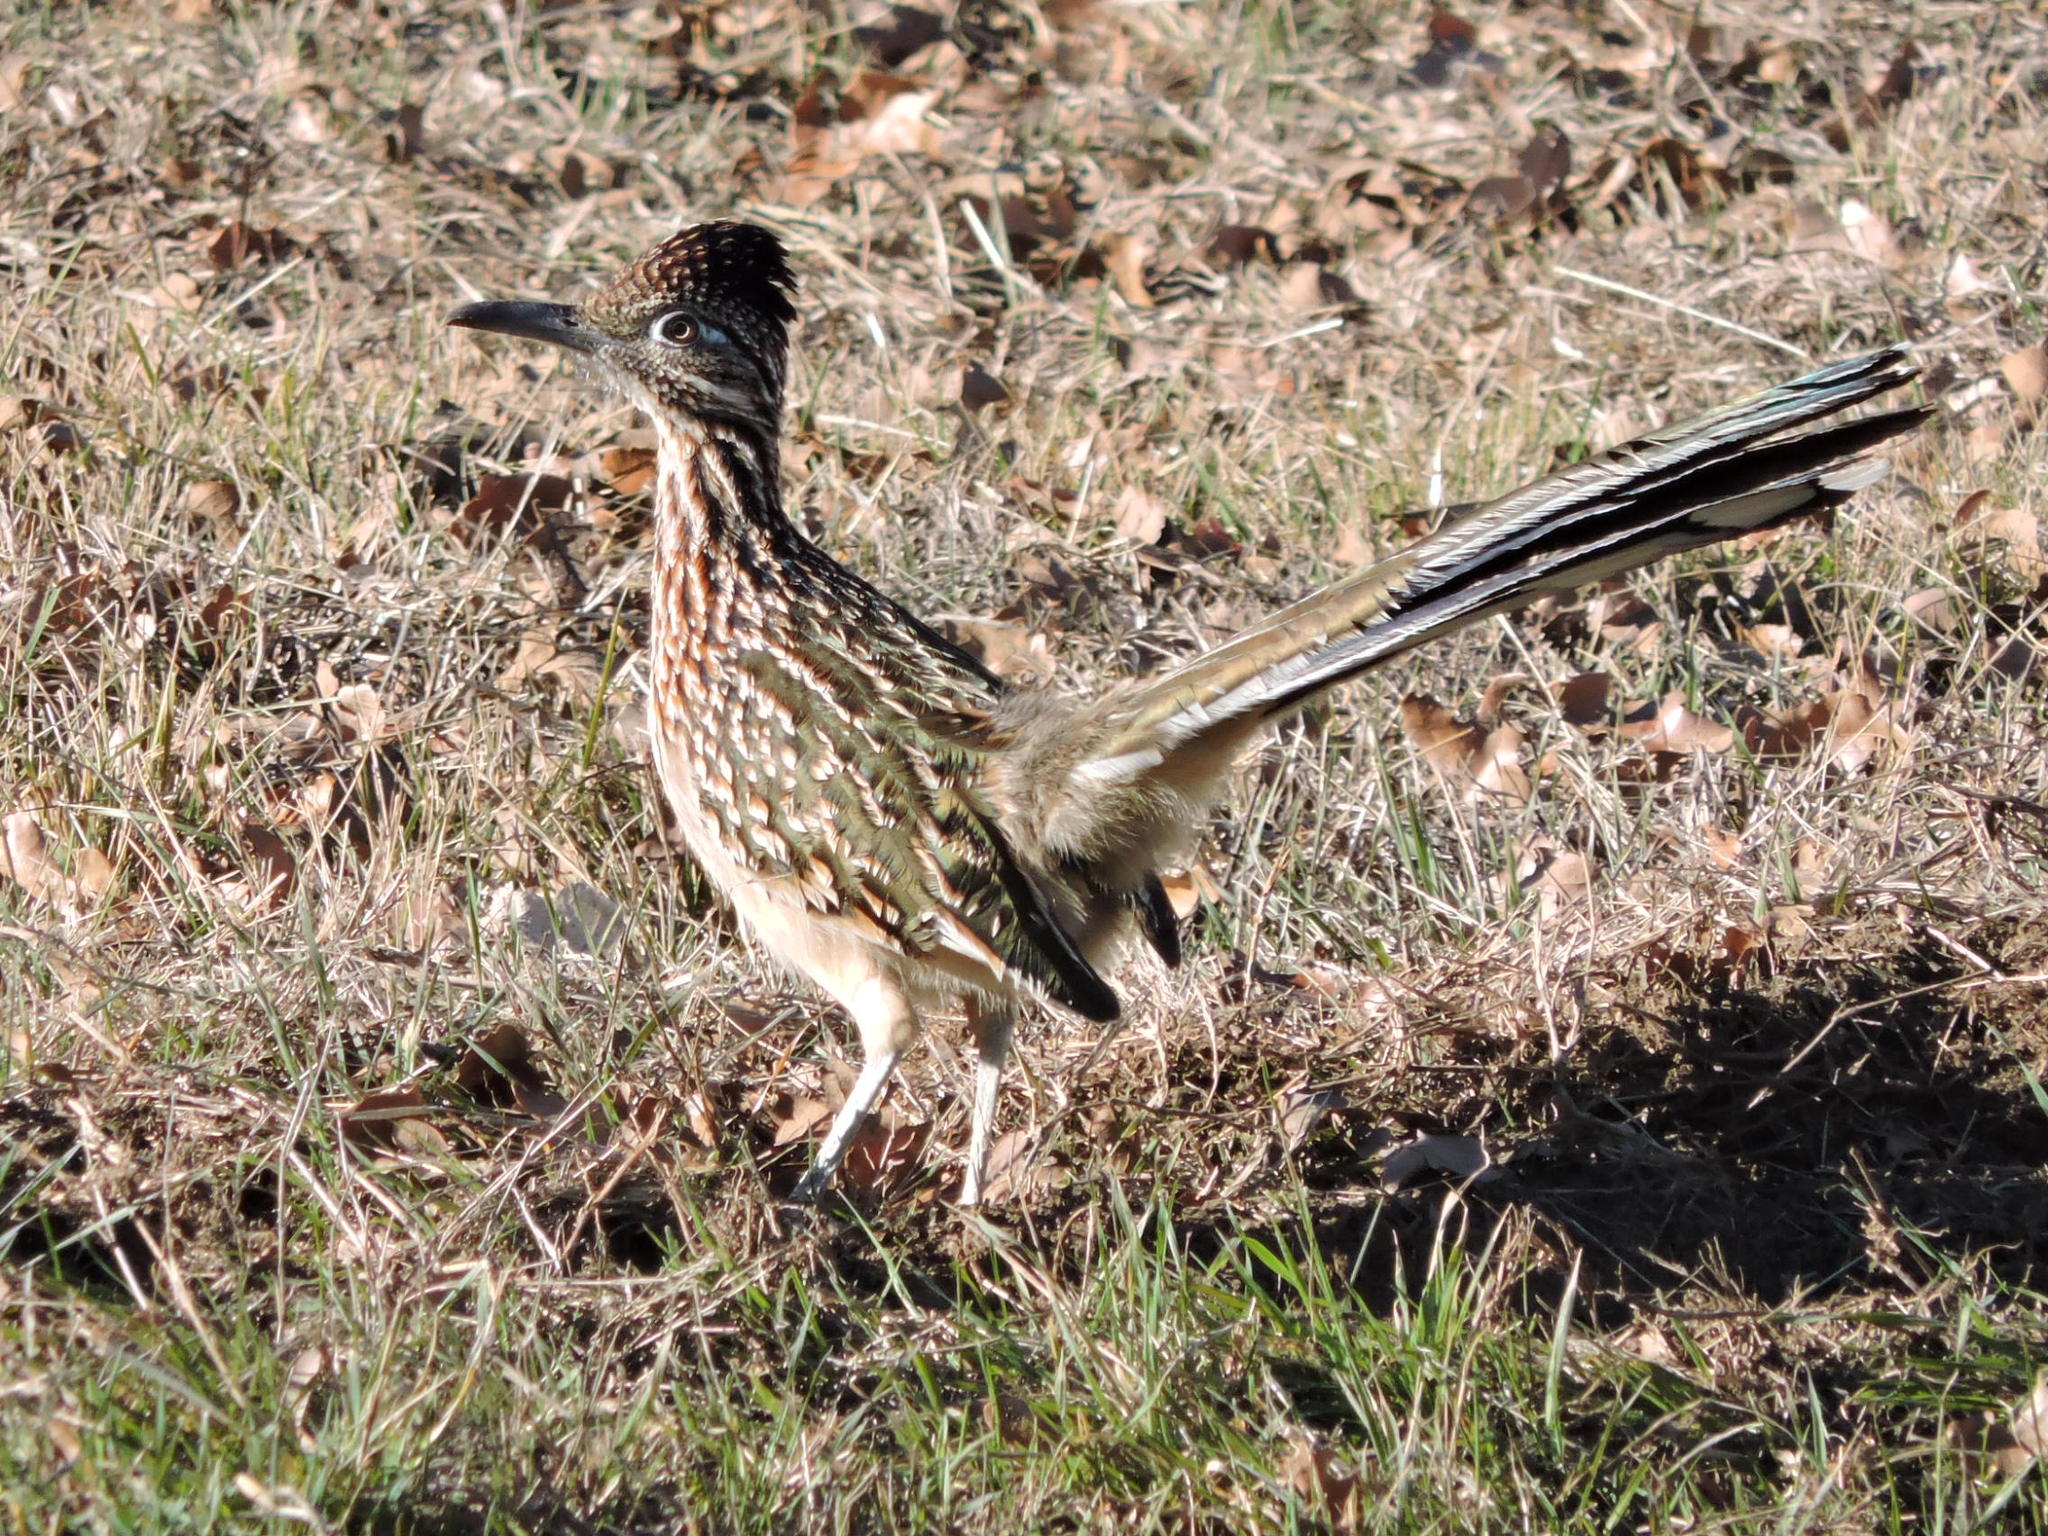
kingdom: Animalia
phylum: Chordata
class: Aves
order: Cuculiformes
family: Cuculidae
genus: Geococcyx
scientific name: Geococcyx californianus
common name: Greater roadrunner
